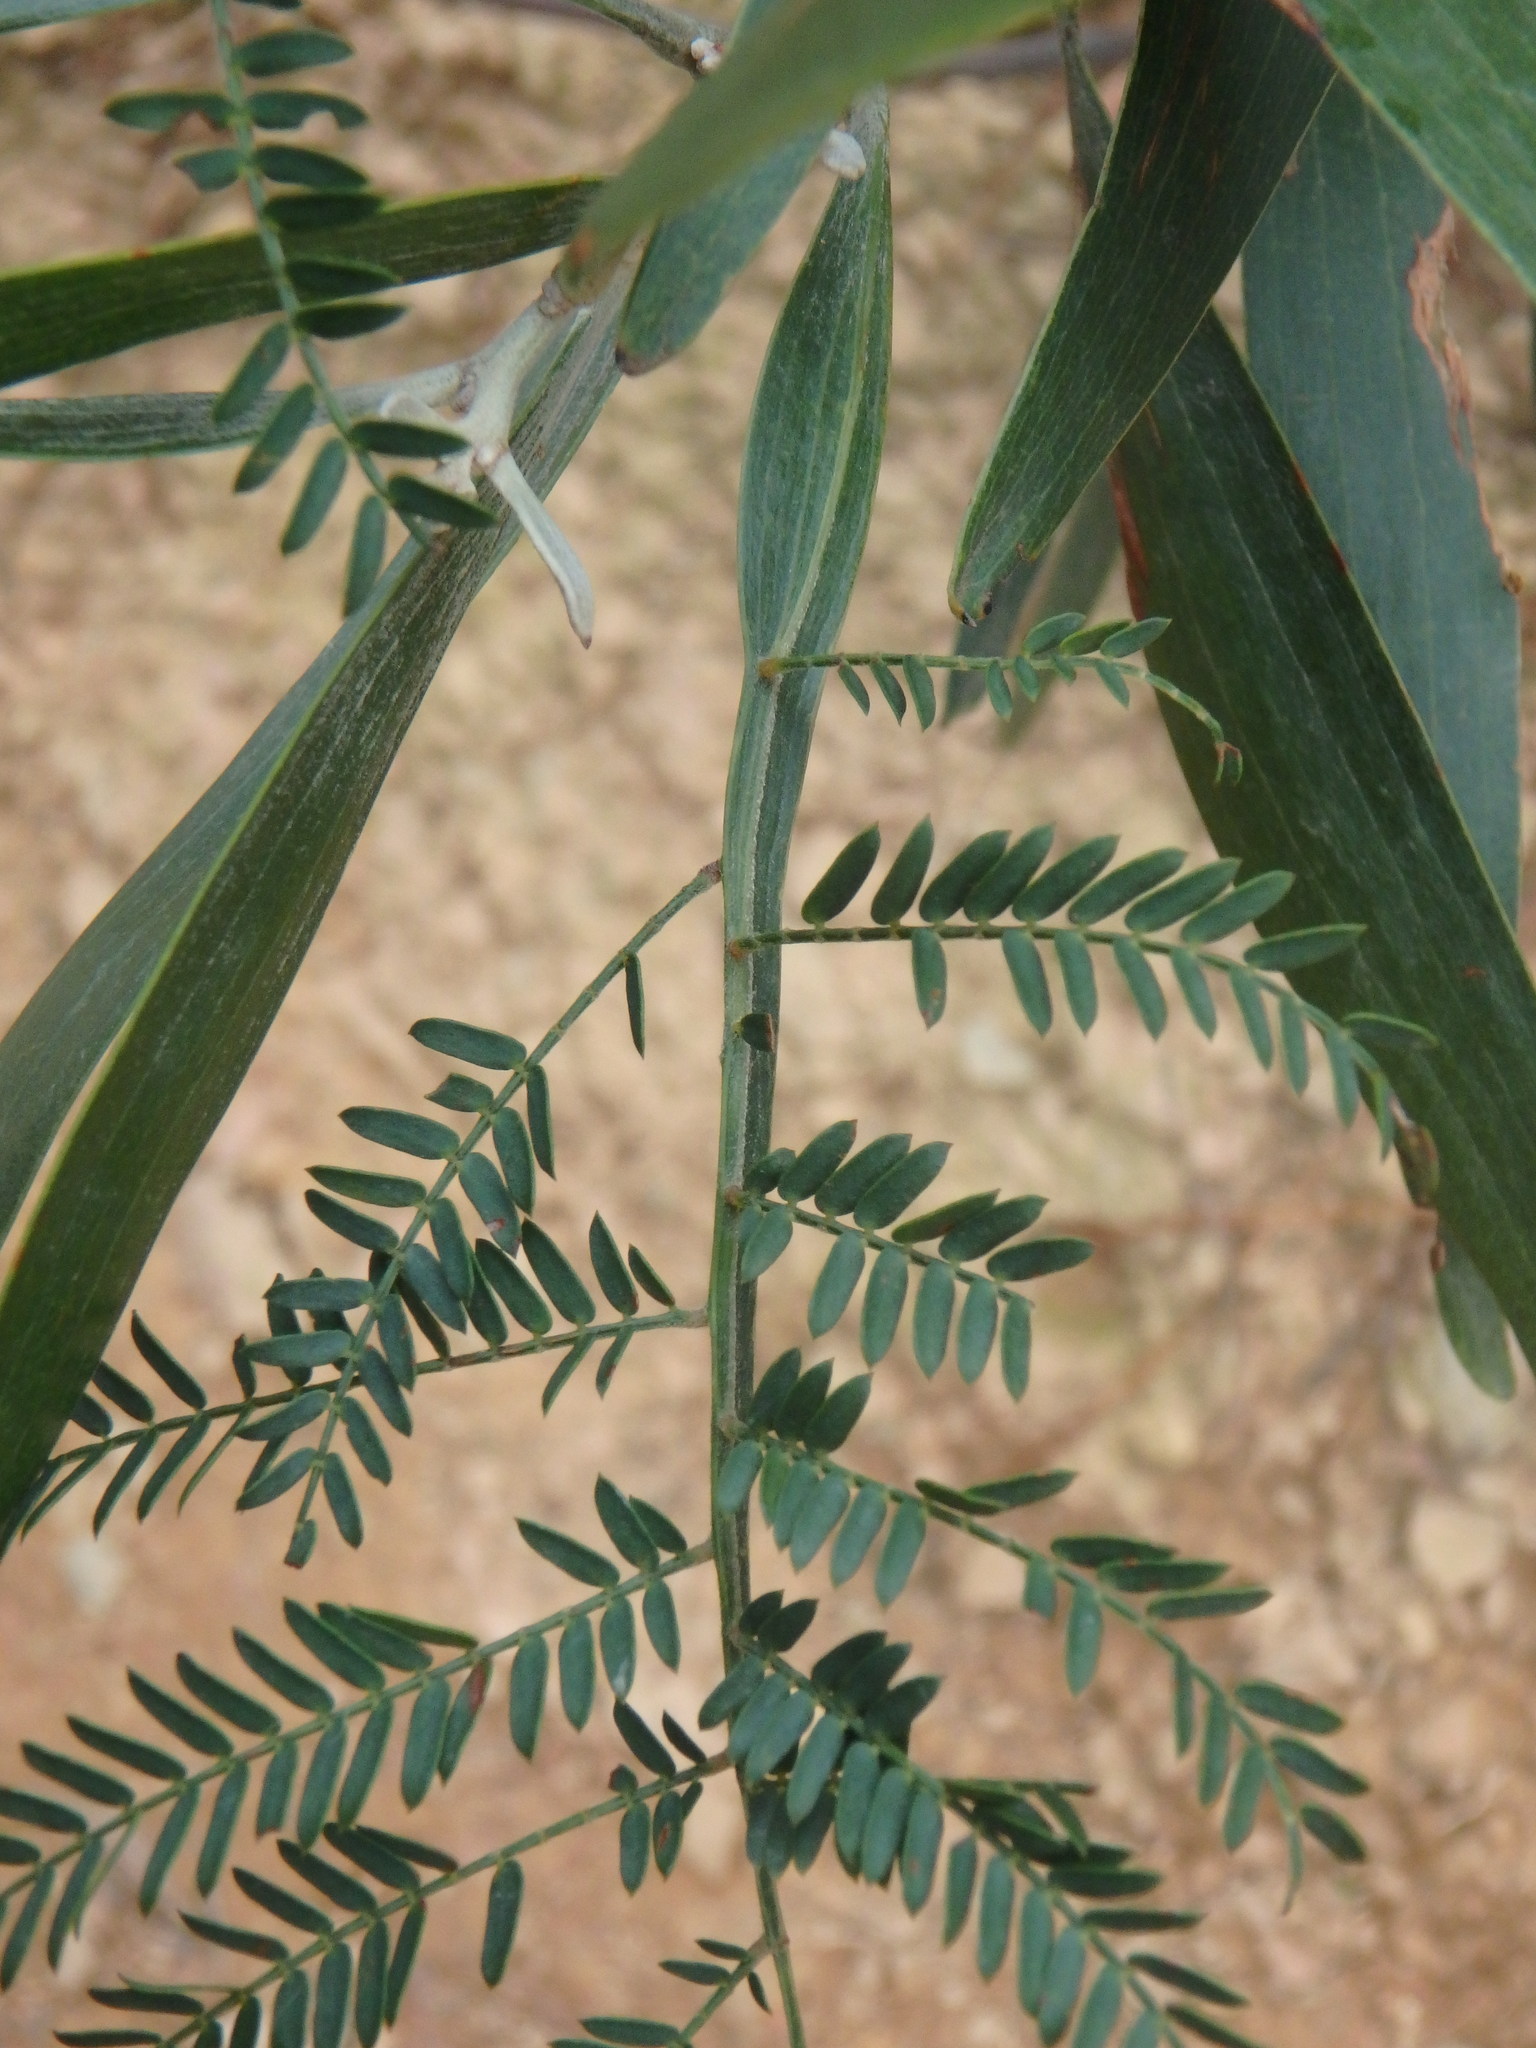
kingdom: Plantae
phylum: Tracheophyta
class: Magnoliopsida
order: Fabales
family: Fabaceae
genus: Acacia
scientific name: Acacia melanoxylon
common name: Blackwood
